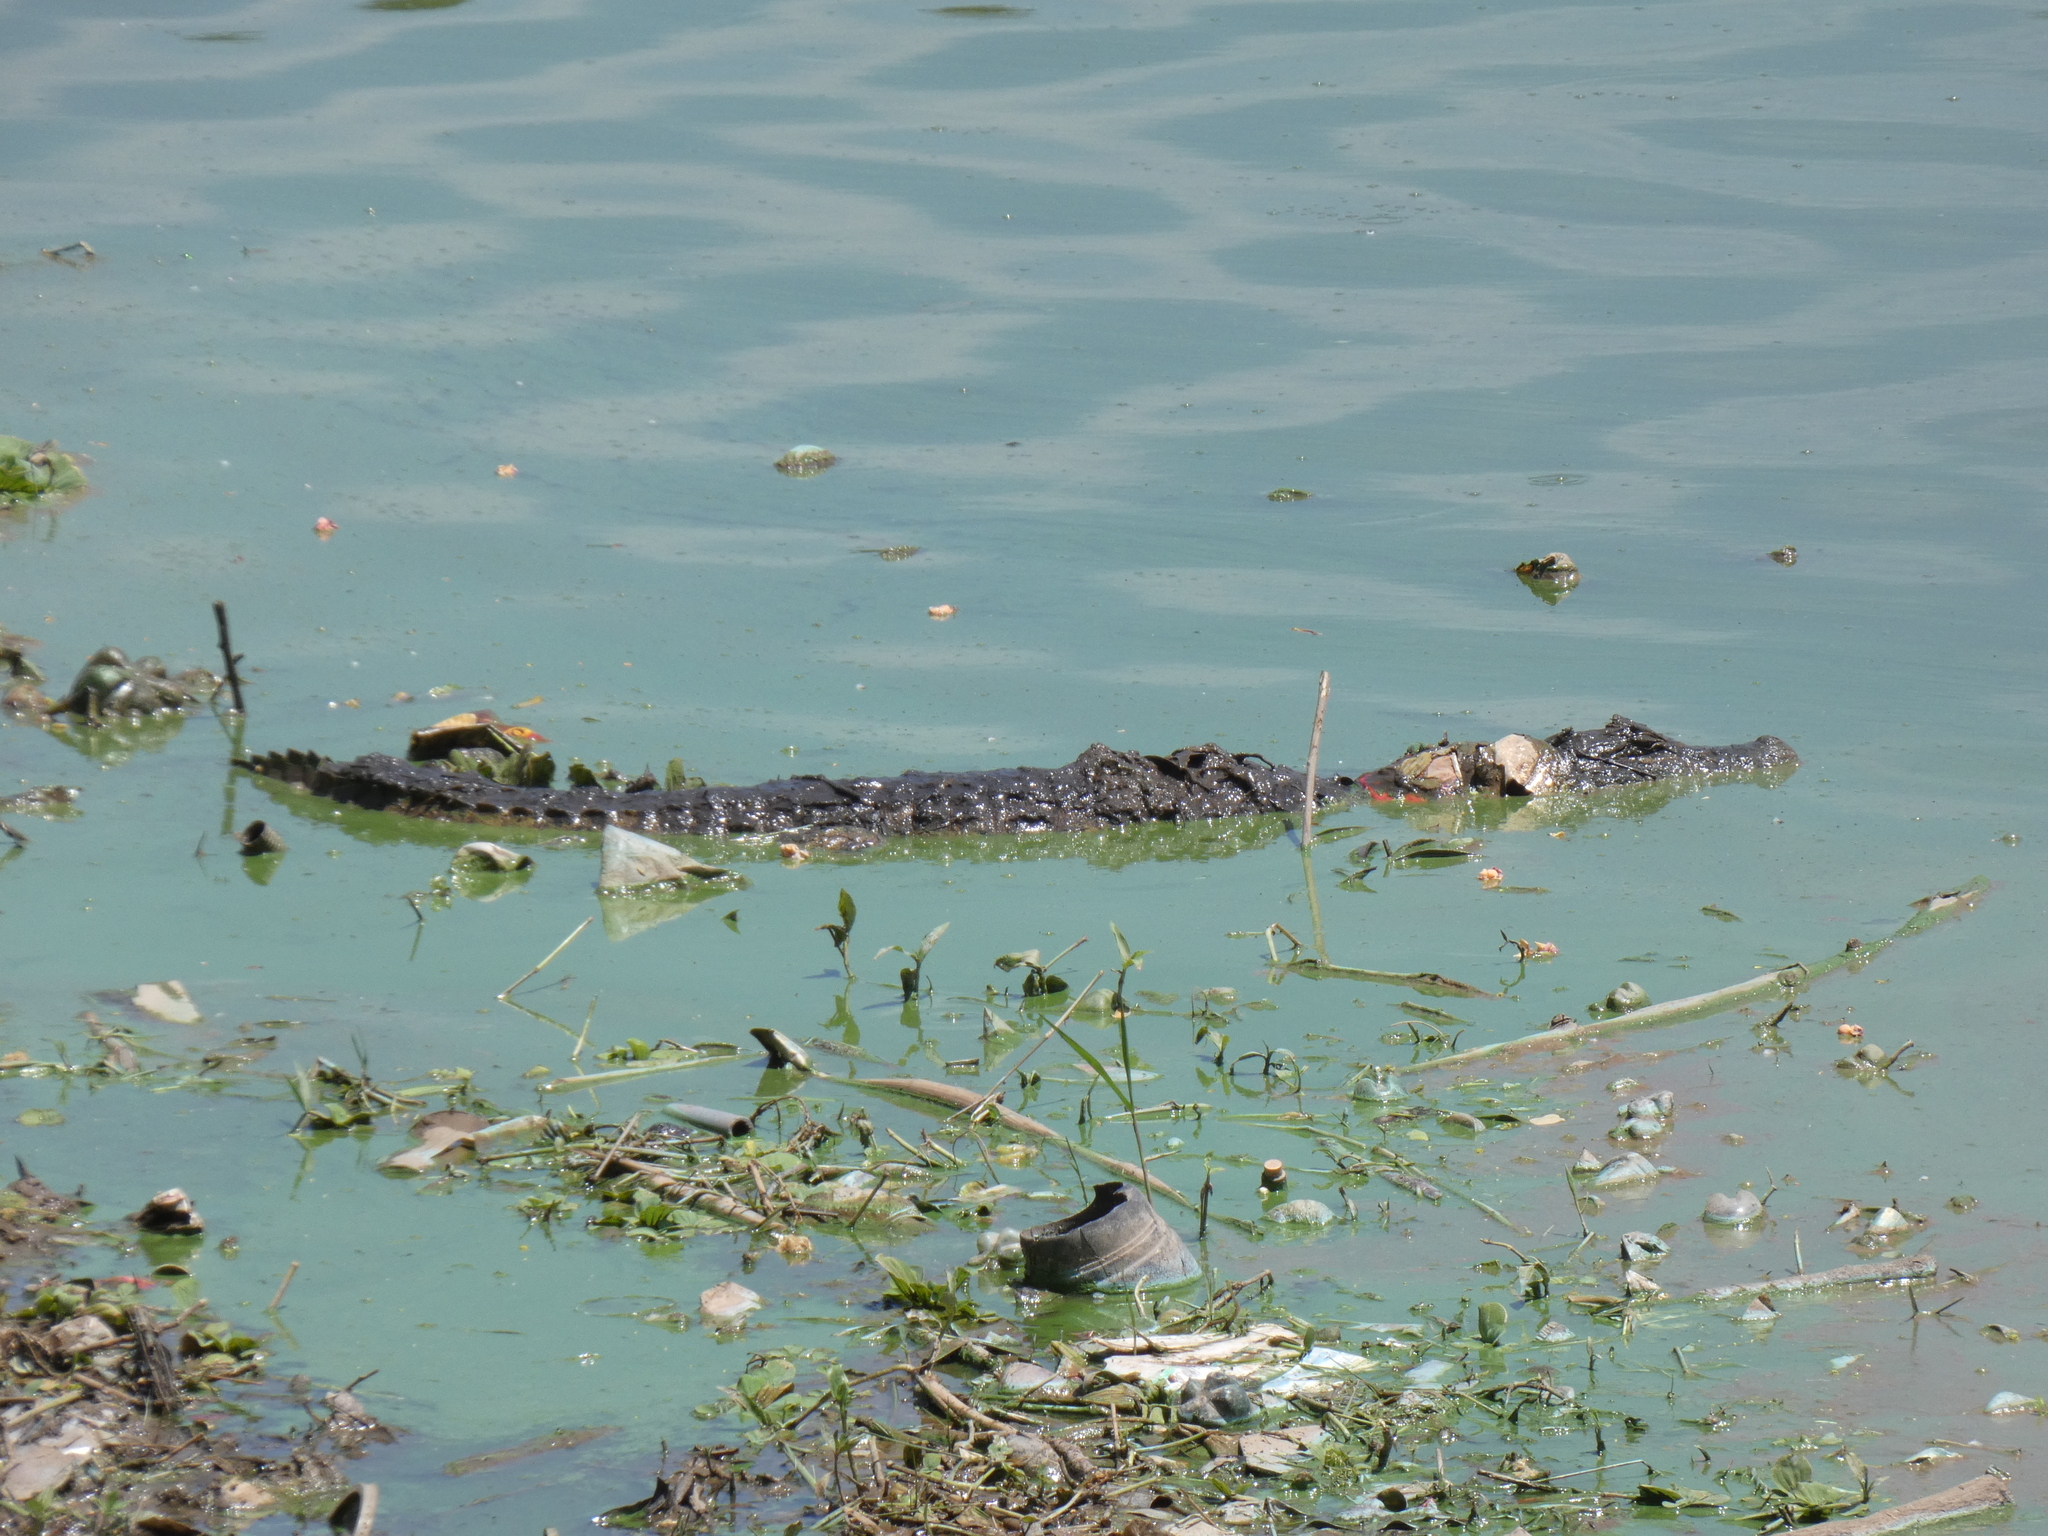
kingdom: Animalia
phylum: Chordata
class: Crocodylia
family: Alligatoridae
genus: Caiman
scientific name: Caiman latirostris
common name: Broad-snouted caiman
